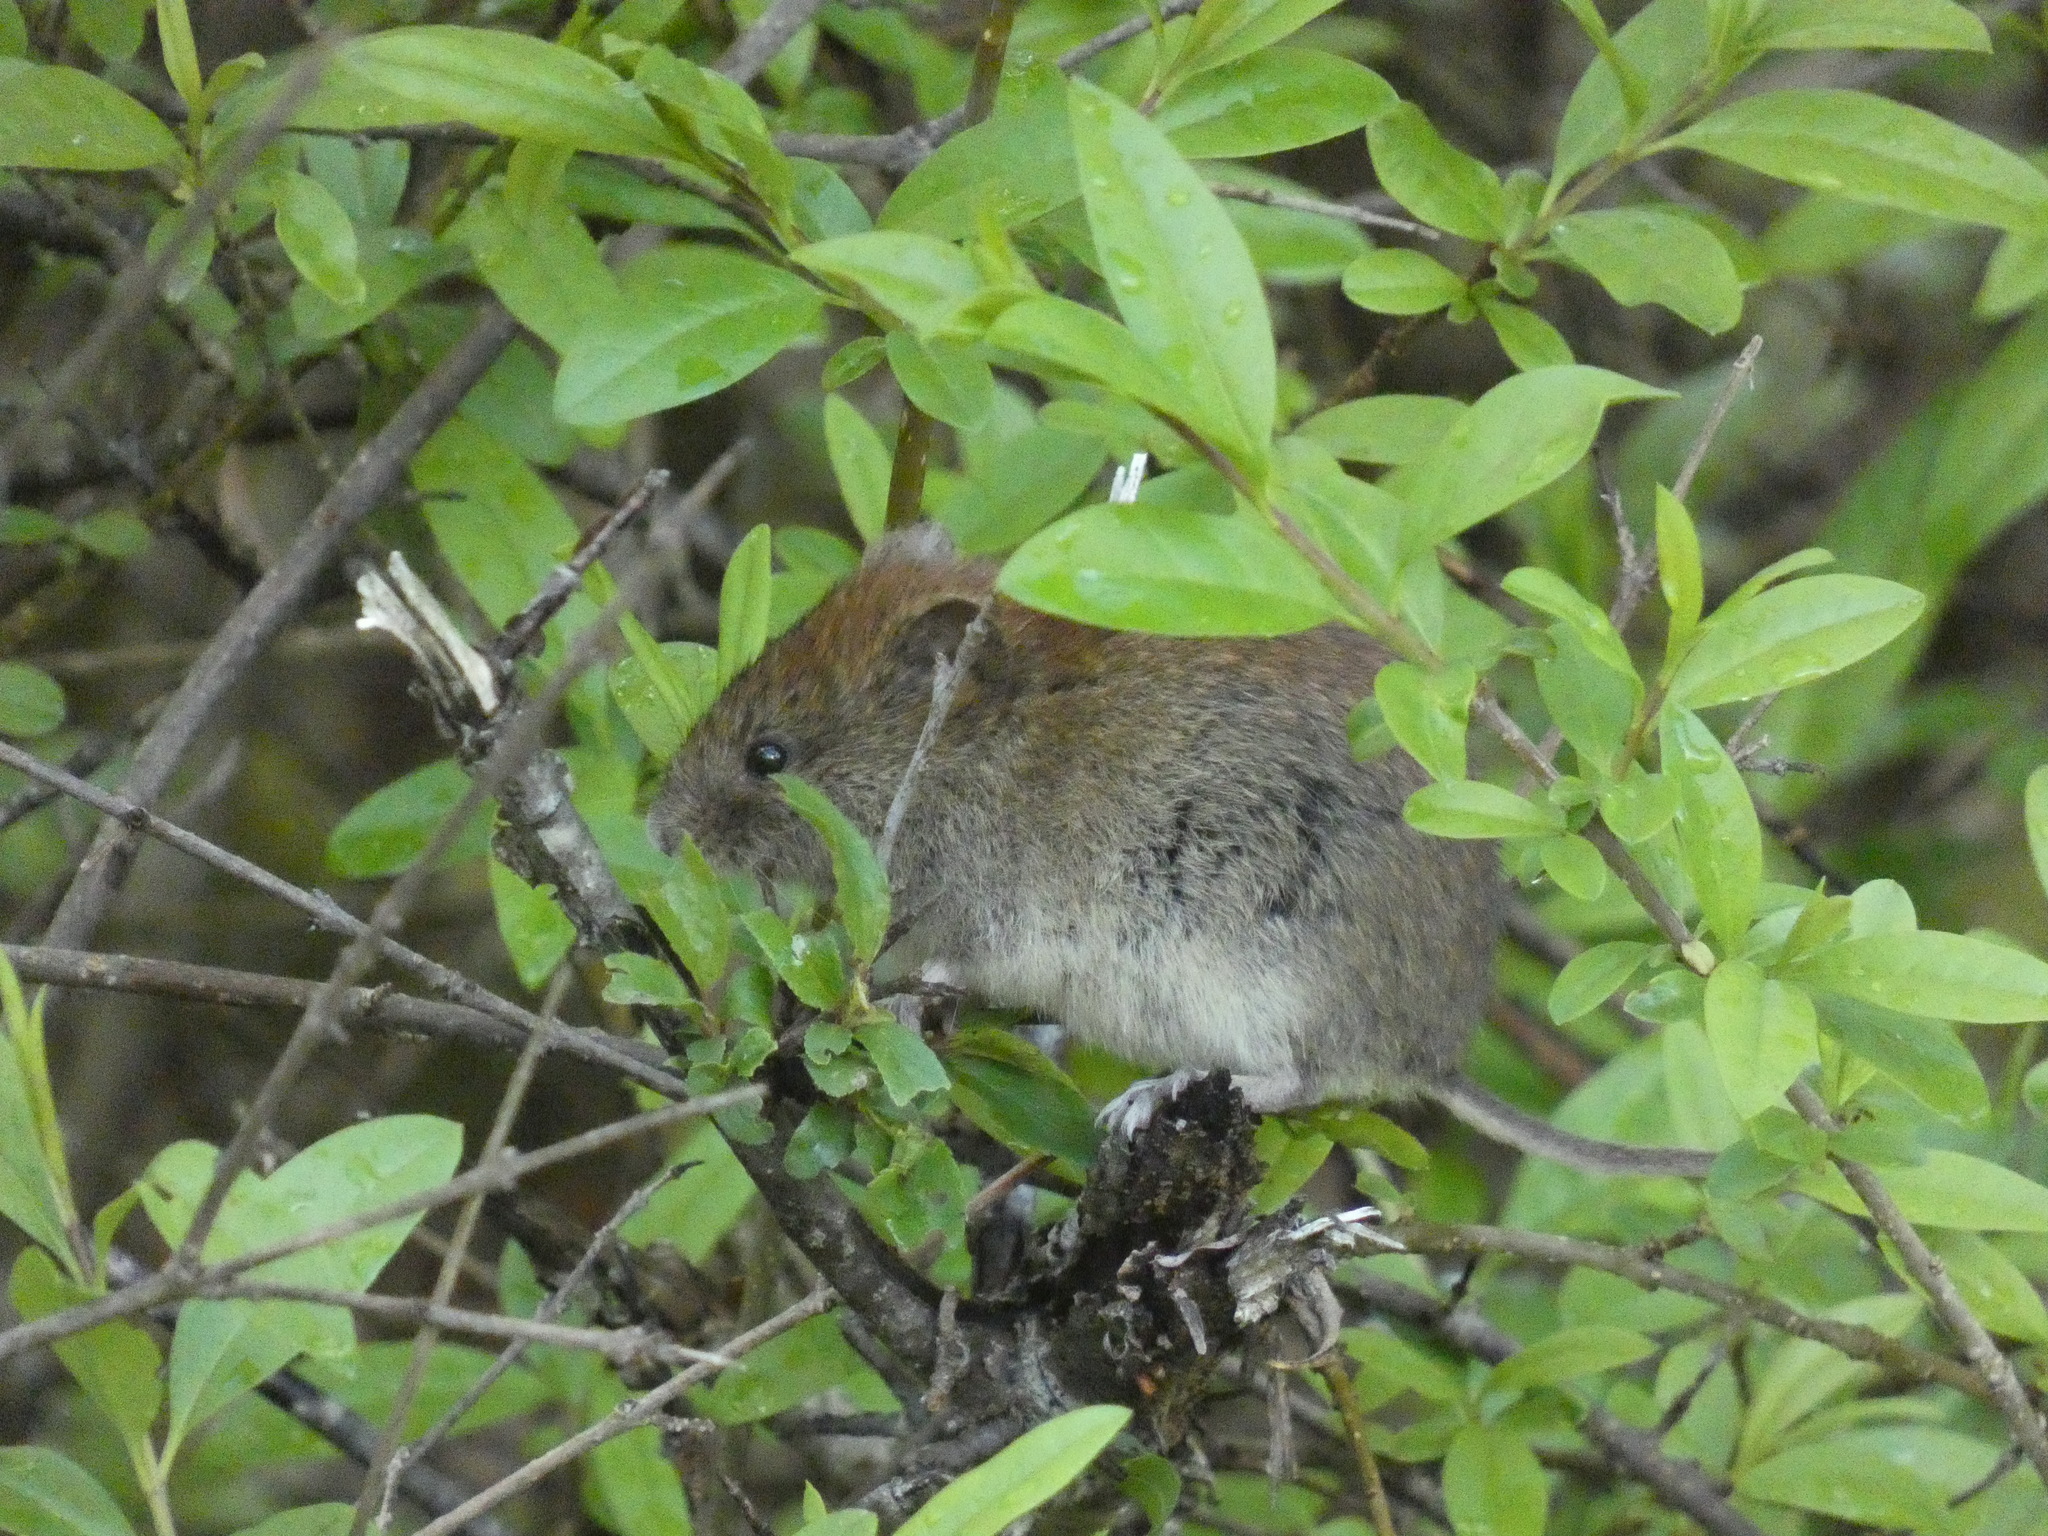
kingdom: Animalia
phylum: Chordata
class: Mammalia
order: Rodentia
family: Cricetidae
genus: Myodes
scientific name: Myodes glareolus
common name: Bank vole
